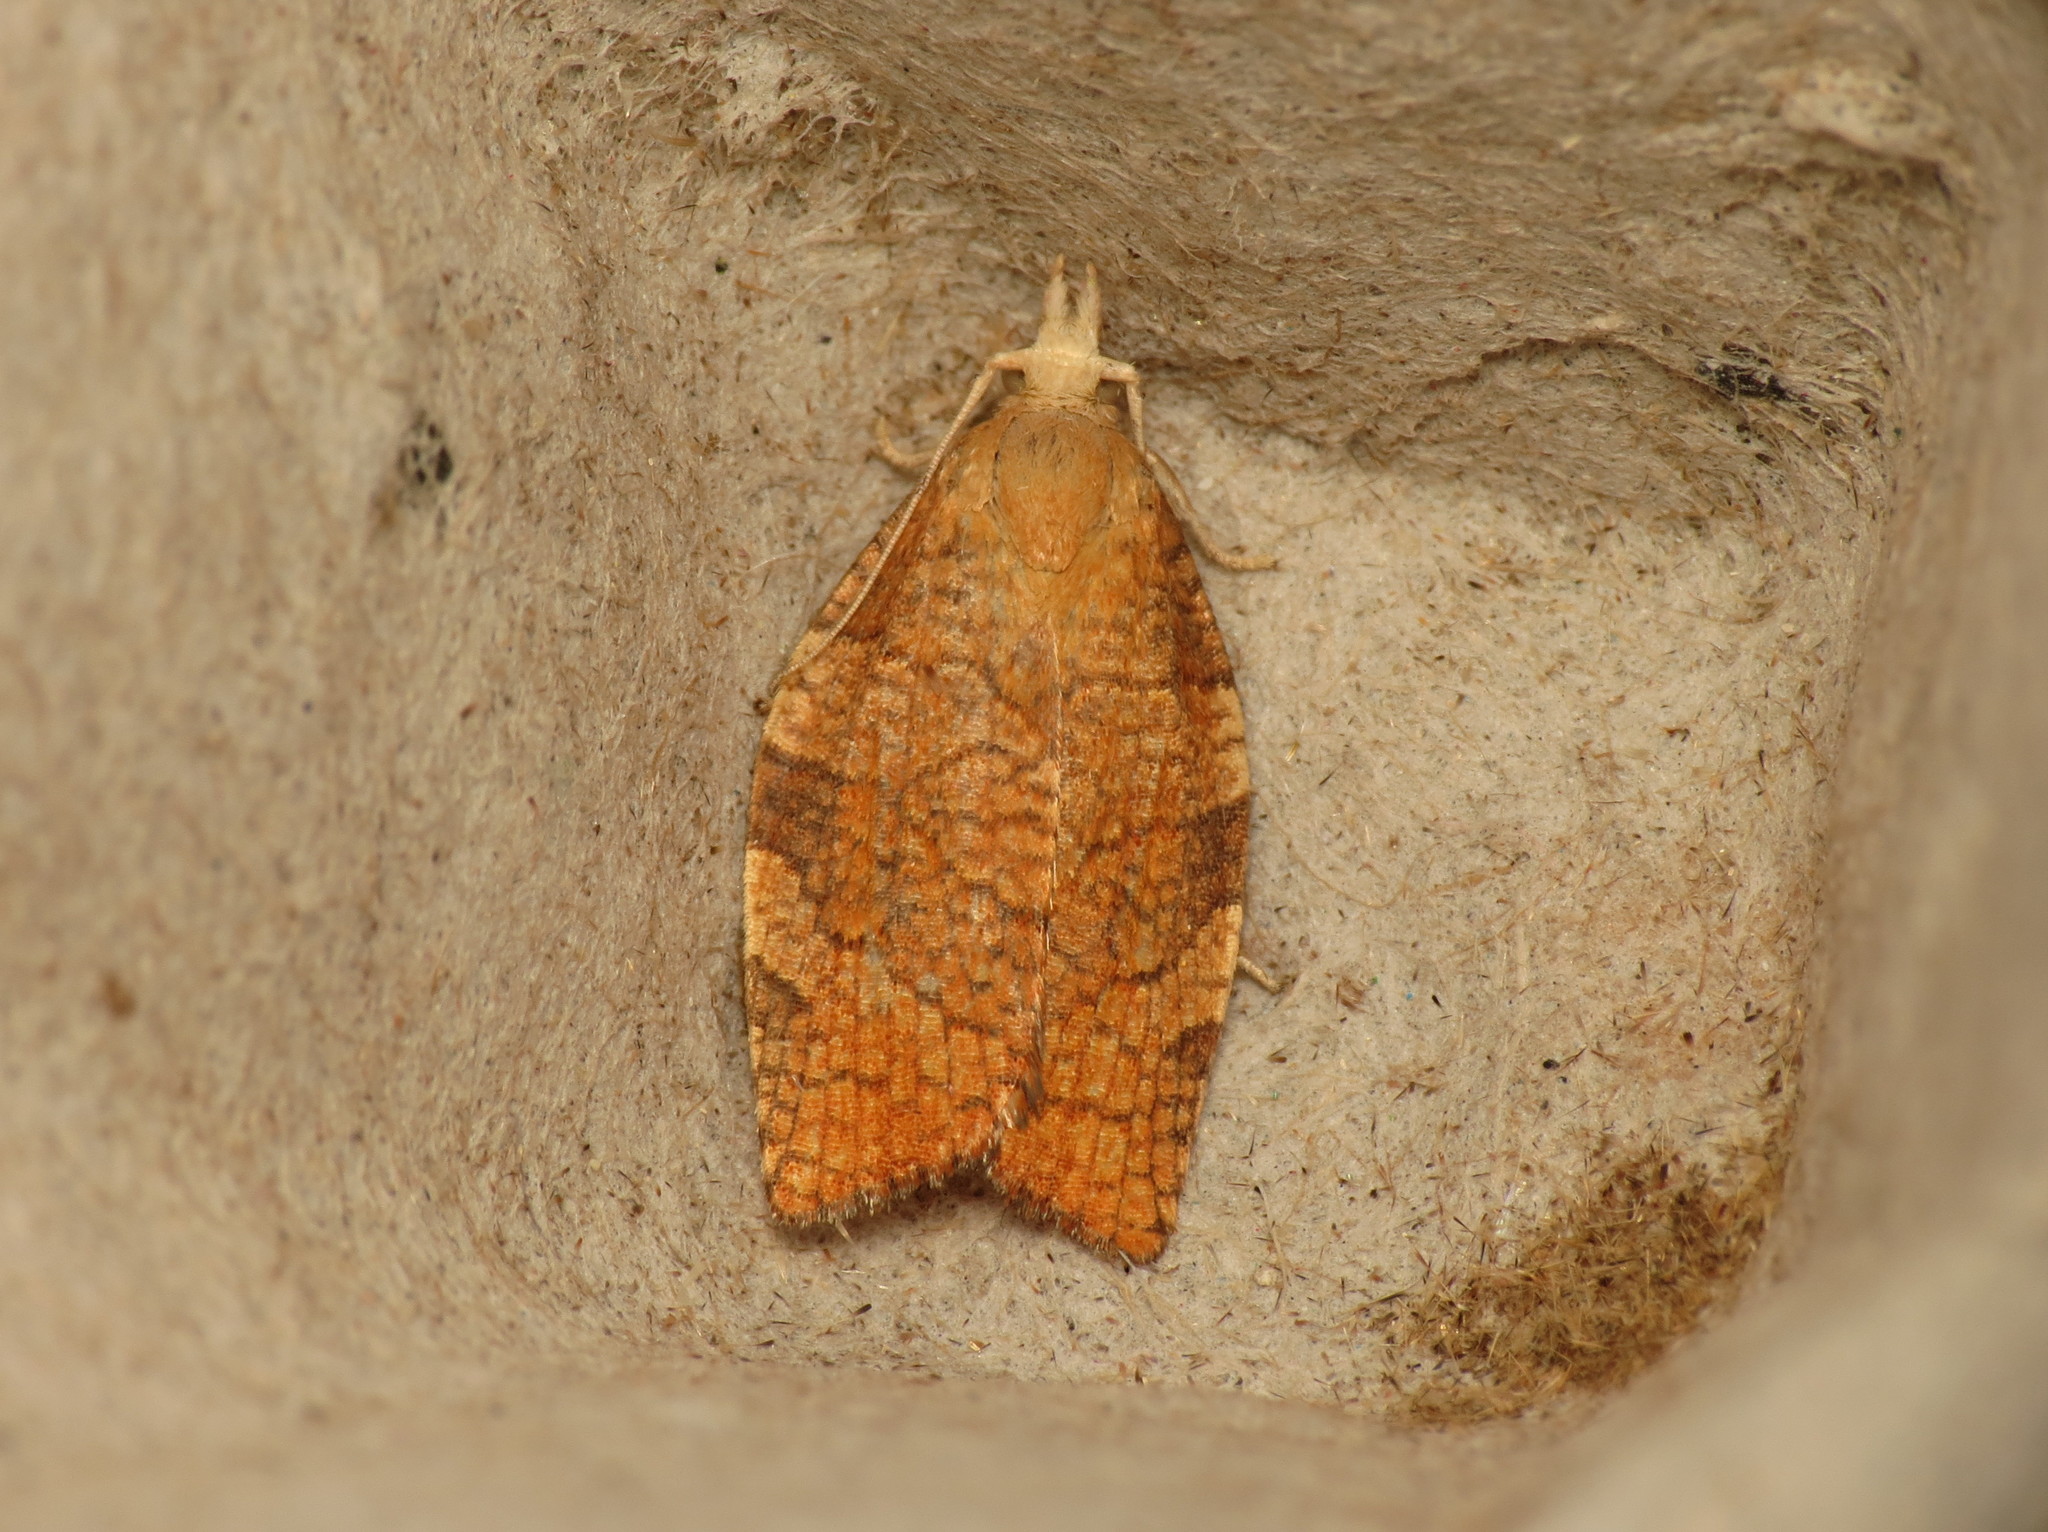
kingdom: Animalia
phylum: Arthropoda
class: Insecta
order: Lepidoptera
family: Tortricidae
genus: Pandemis
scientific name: Pandemis corylana
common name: Chequered fruit-tree tortrix
